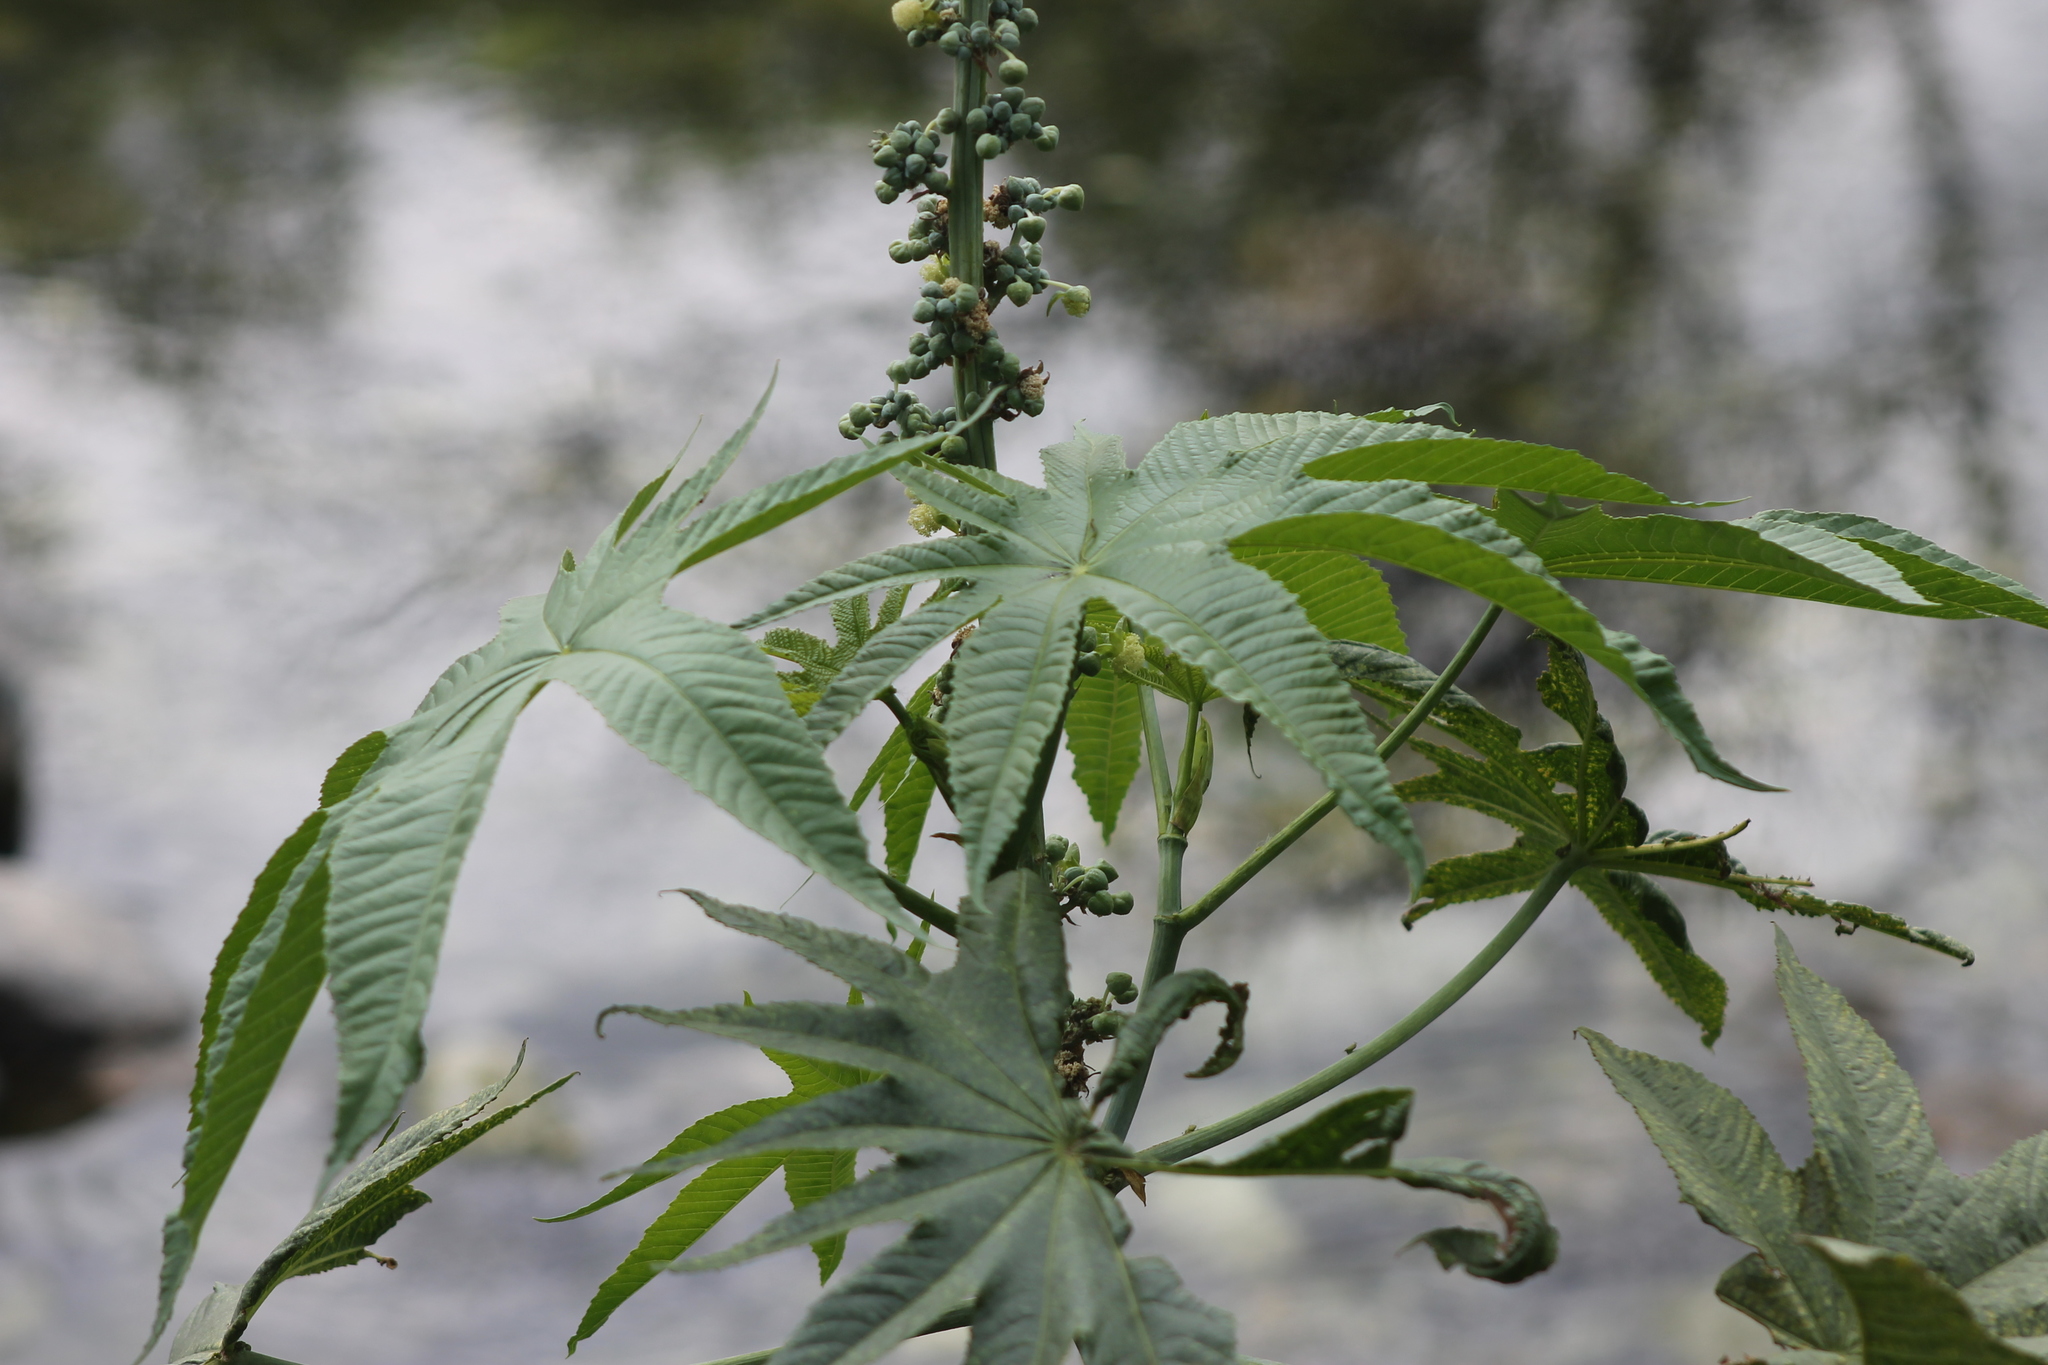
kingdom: Plantae
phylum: Tracheophyta
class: Magnoliopsida
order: Malpighiales
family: Euphorbiaceae
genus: Ricinus
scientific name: Ricinus communis
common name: Castor-oil-plant
